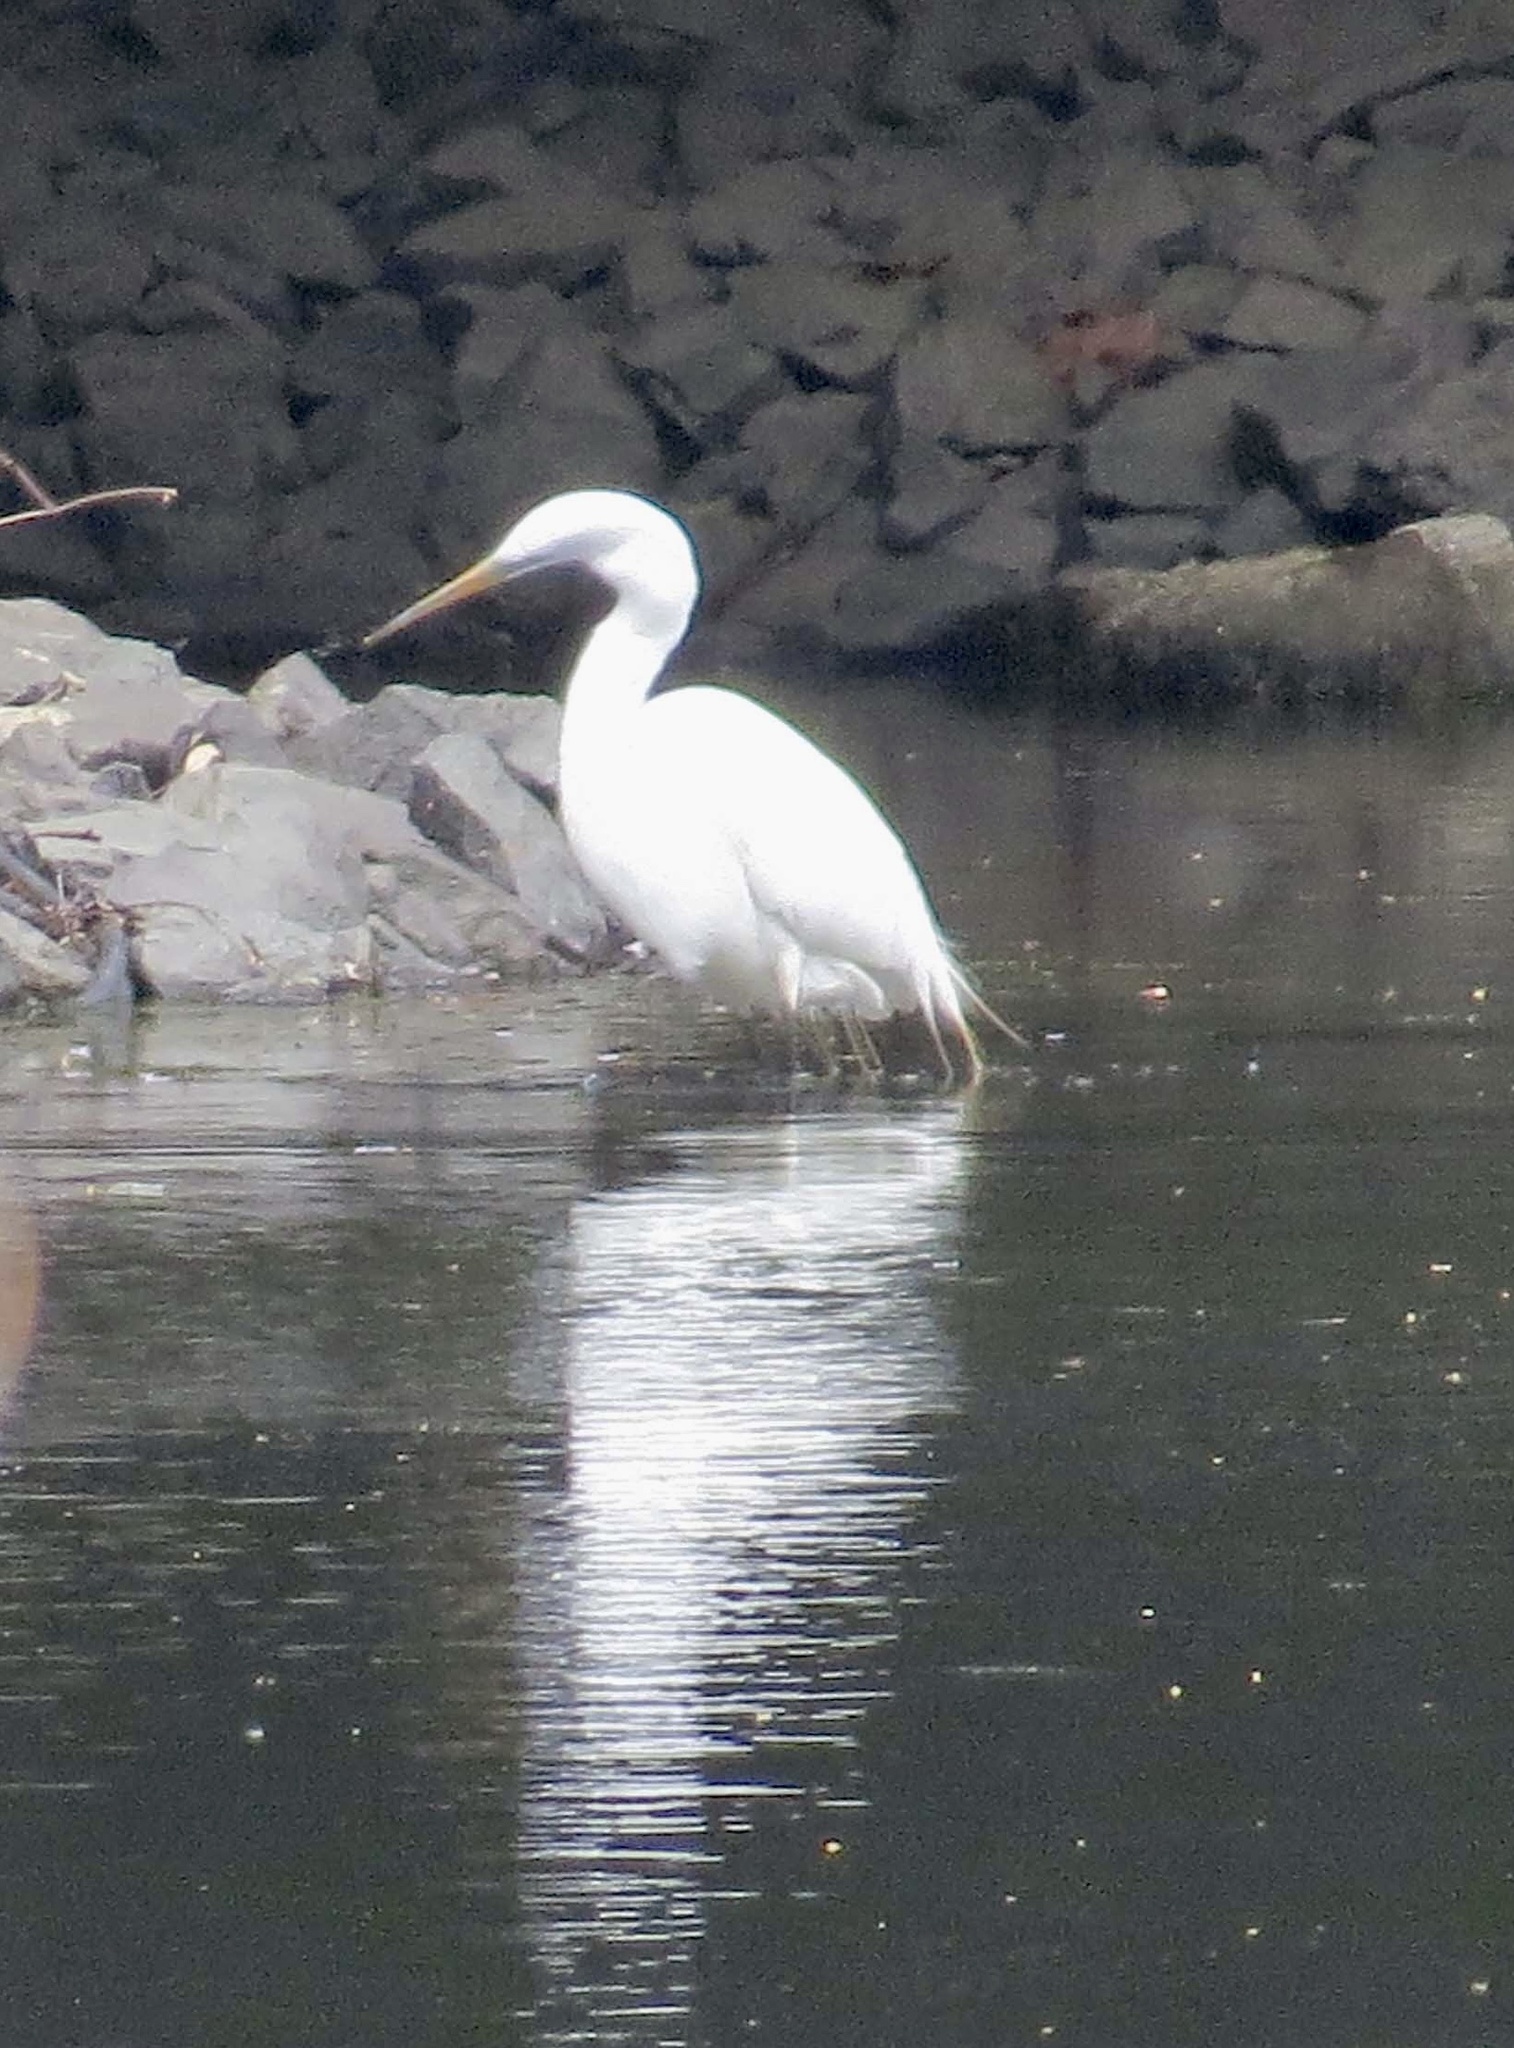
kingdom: Animalia
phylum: Chordata
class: Aves
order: Pelecaniformes
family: Ardeidae
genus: Ardea
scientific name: Ardea alba
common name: Great egret
